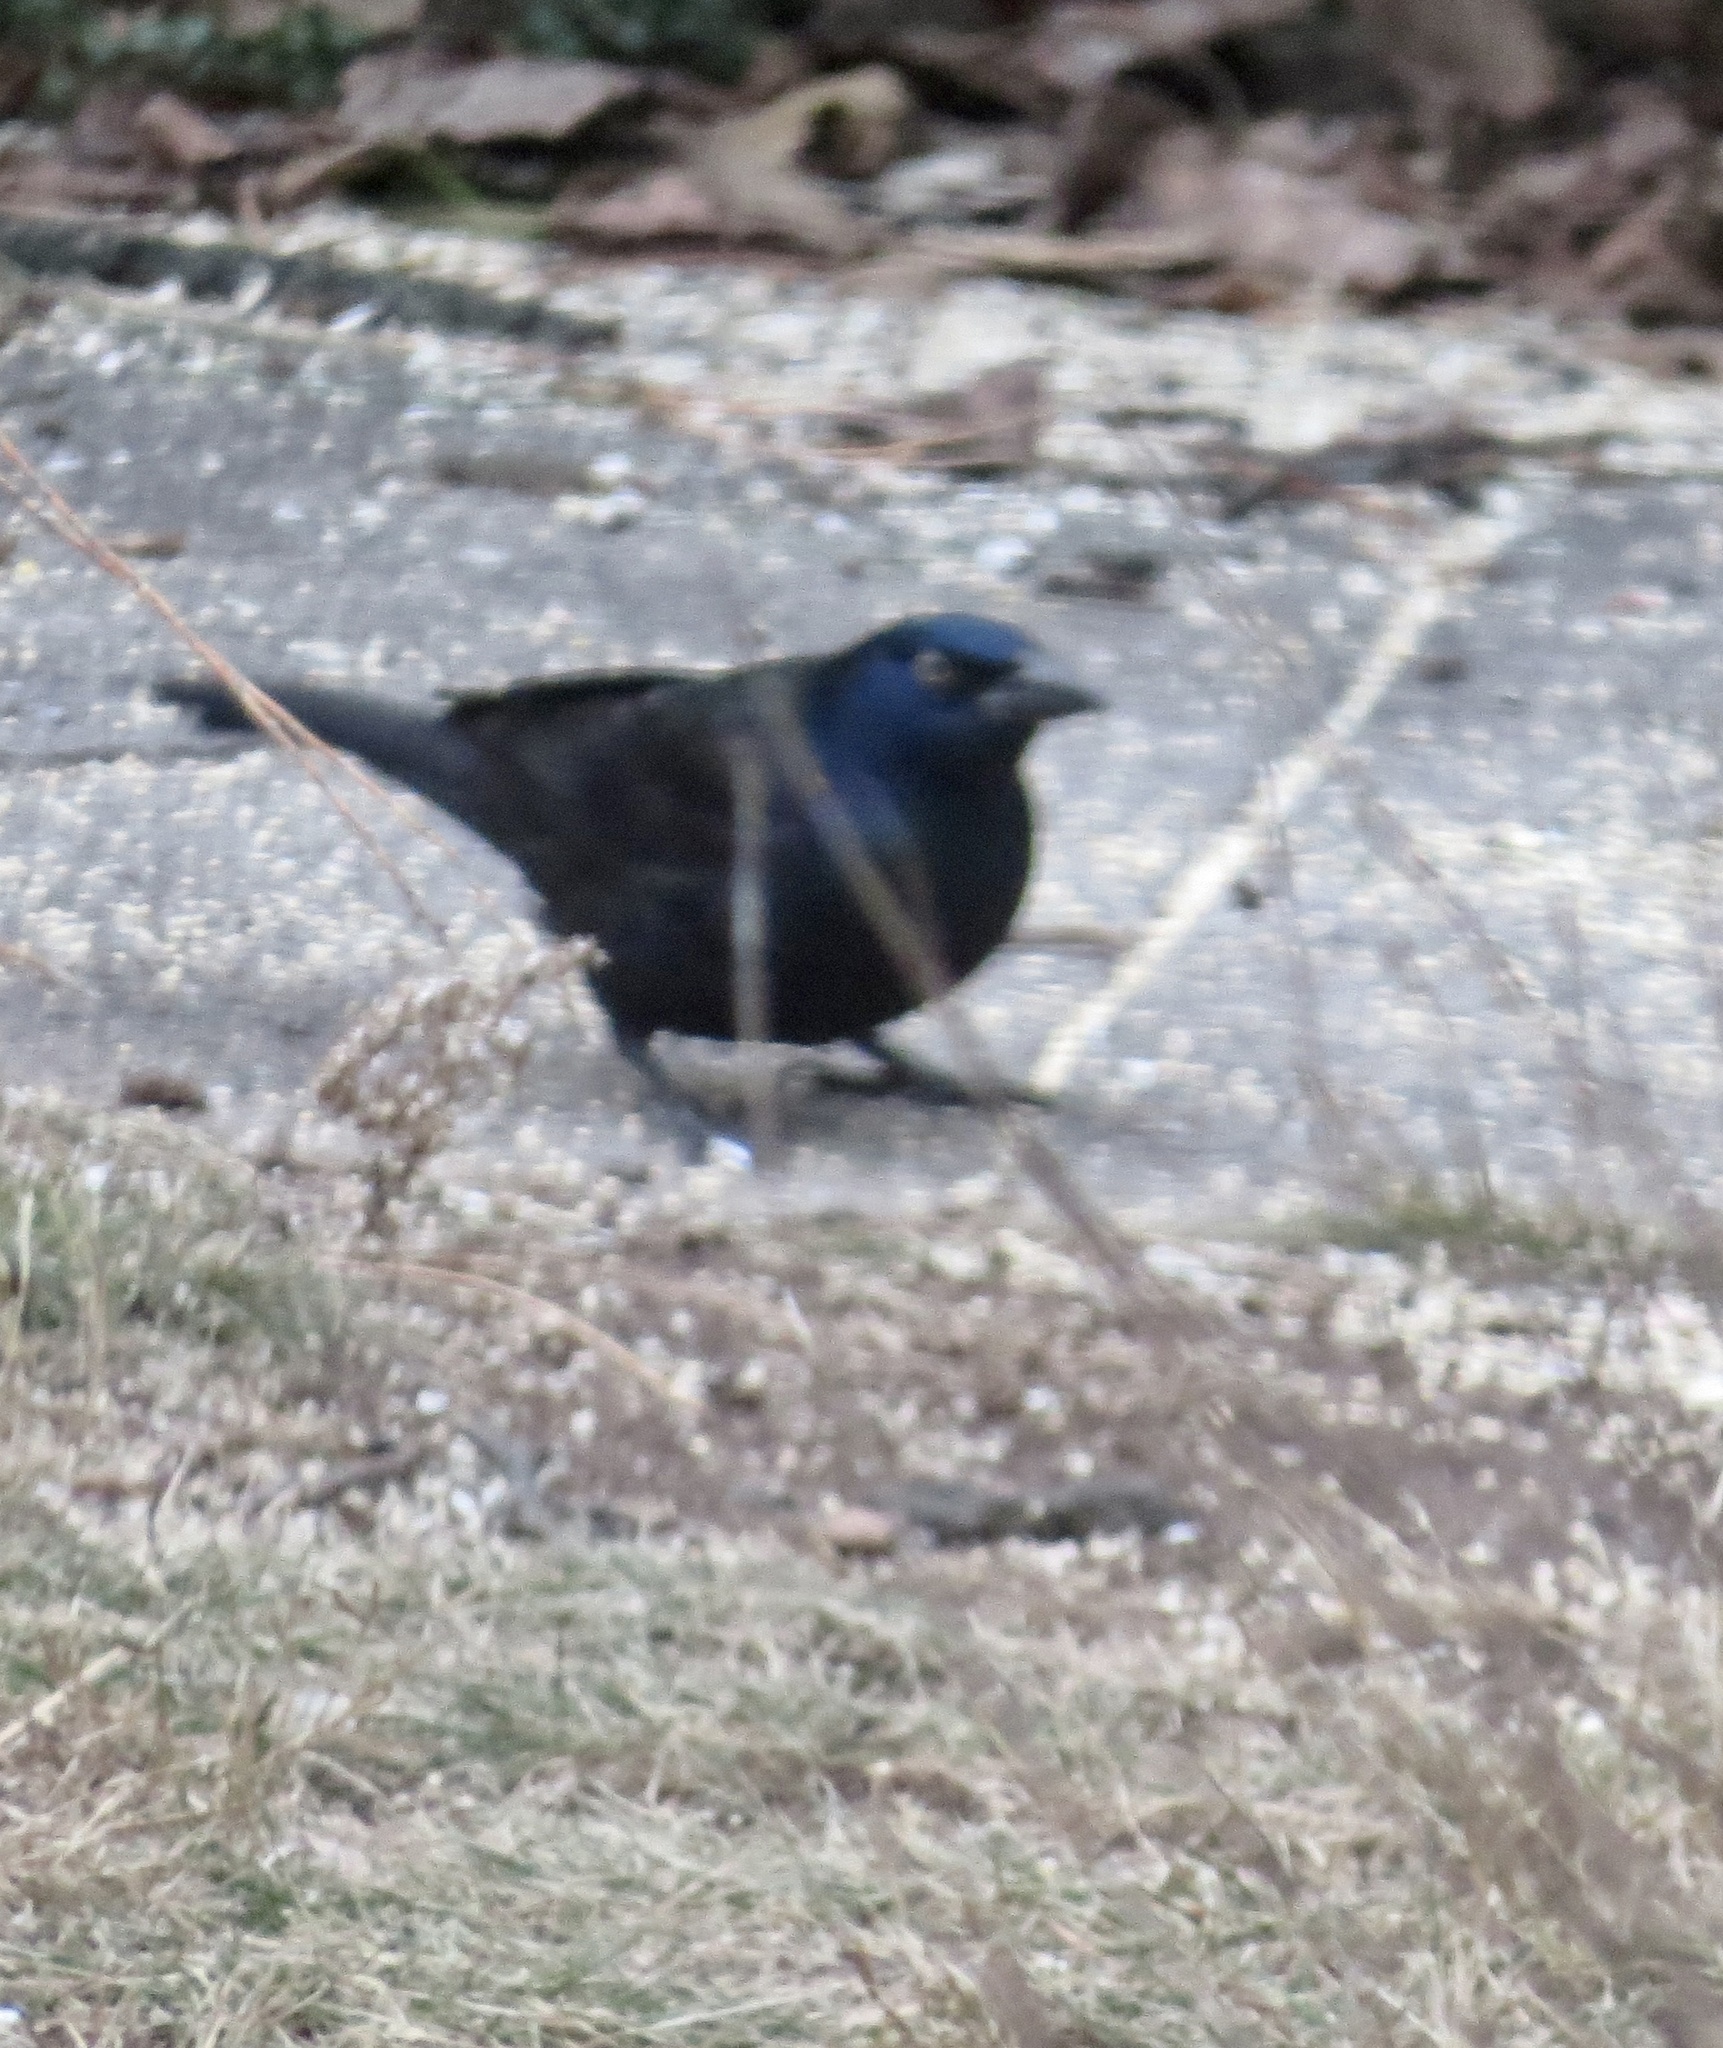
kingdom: Animalia
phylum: Chordata
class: Aves
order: Passeriformes
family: Icteridae
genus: Quiscalus
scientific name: Quiscalus quiscula
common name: Common grackle
